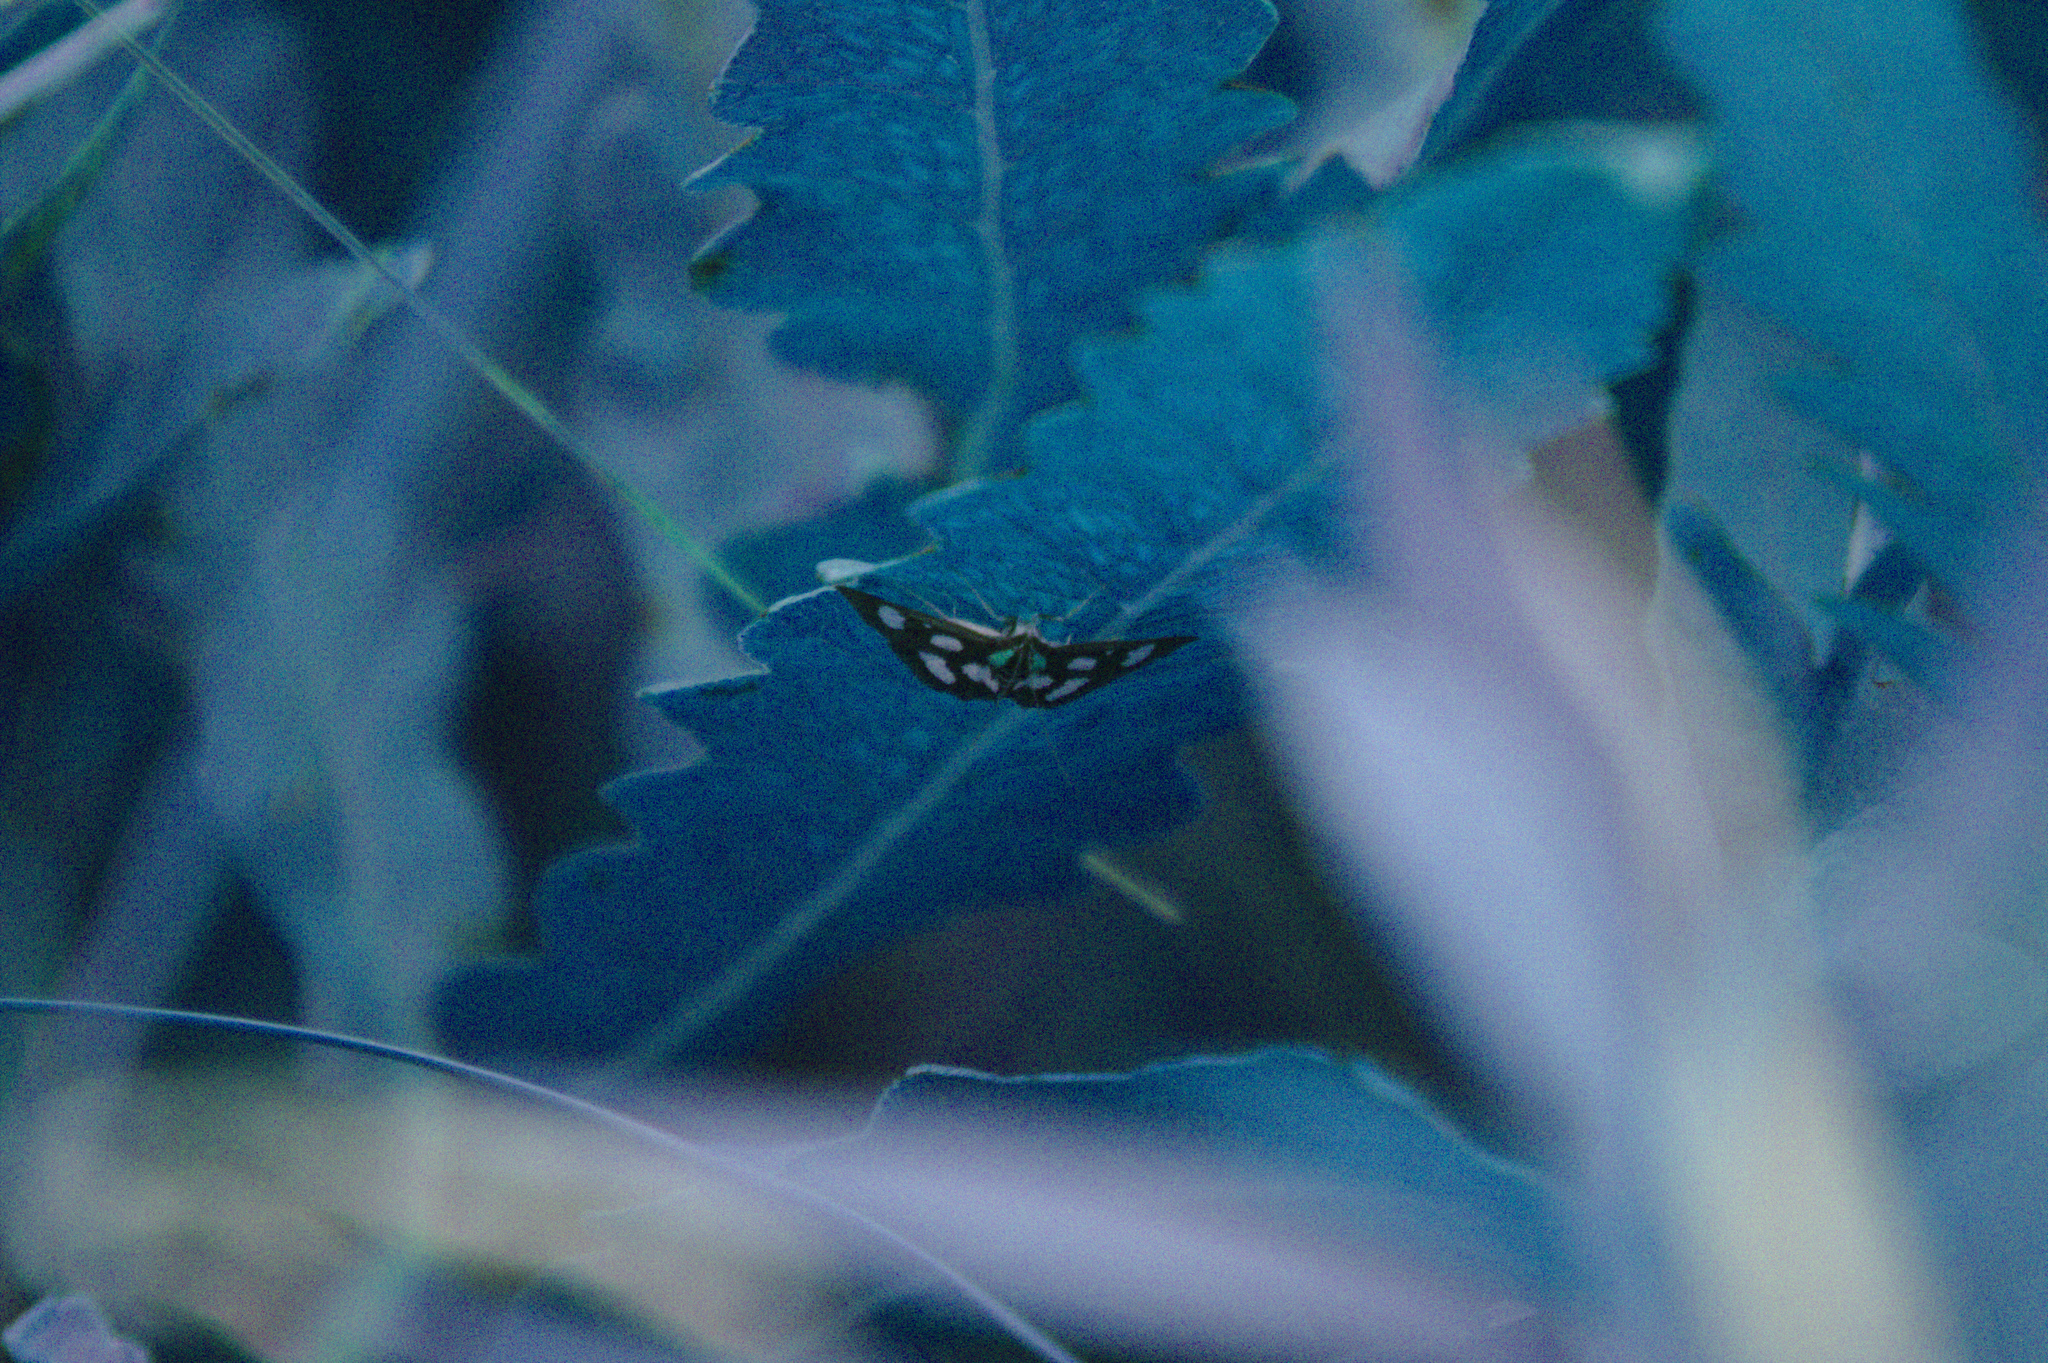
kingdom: Animalia
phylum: Arthropoda
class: Insecta
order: Lepidoptera
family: Crambidae
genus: Anania
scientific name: Anania funebris
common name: White-spotted sable moth
